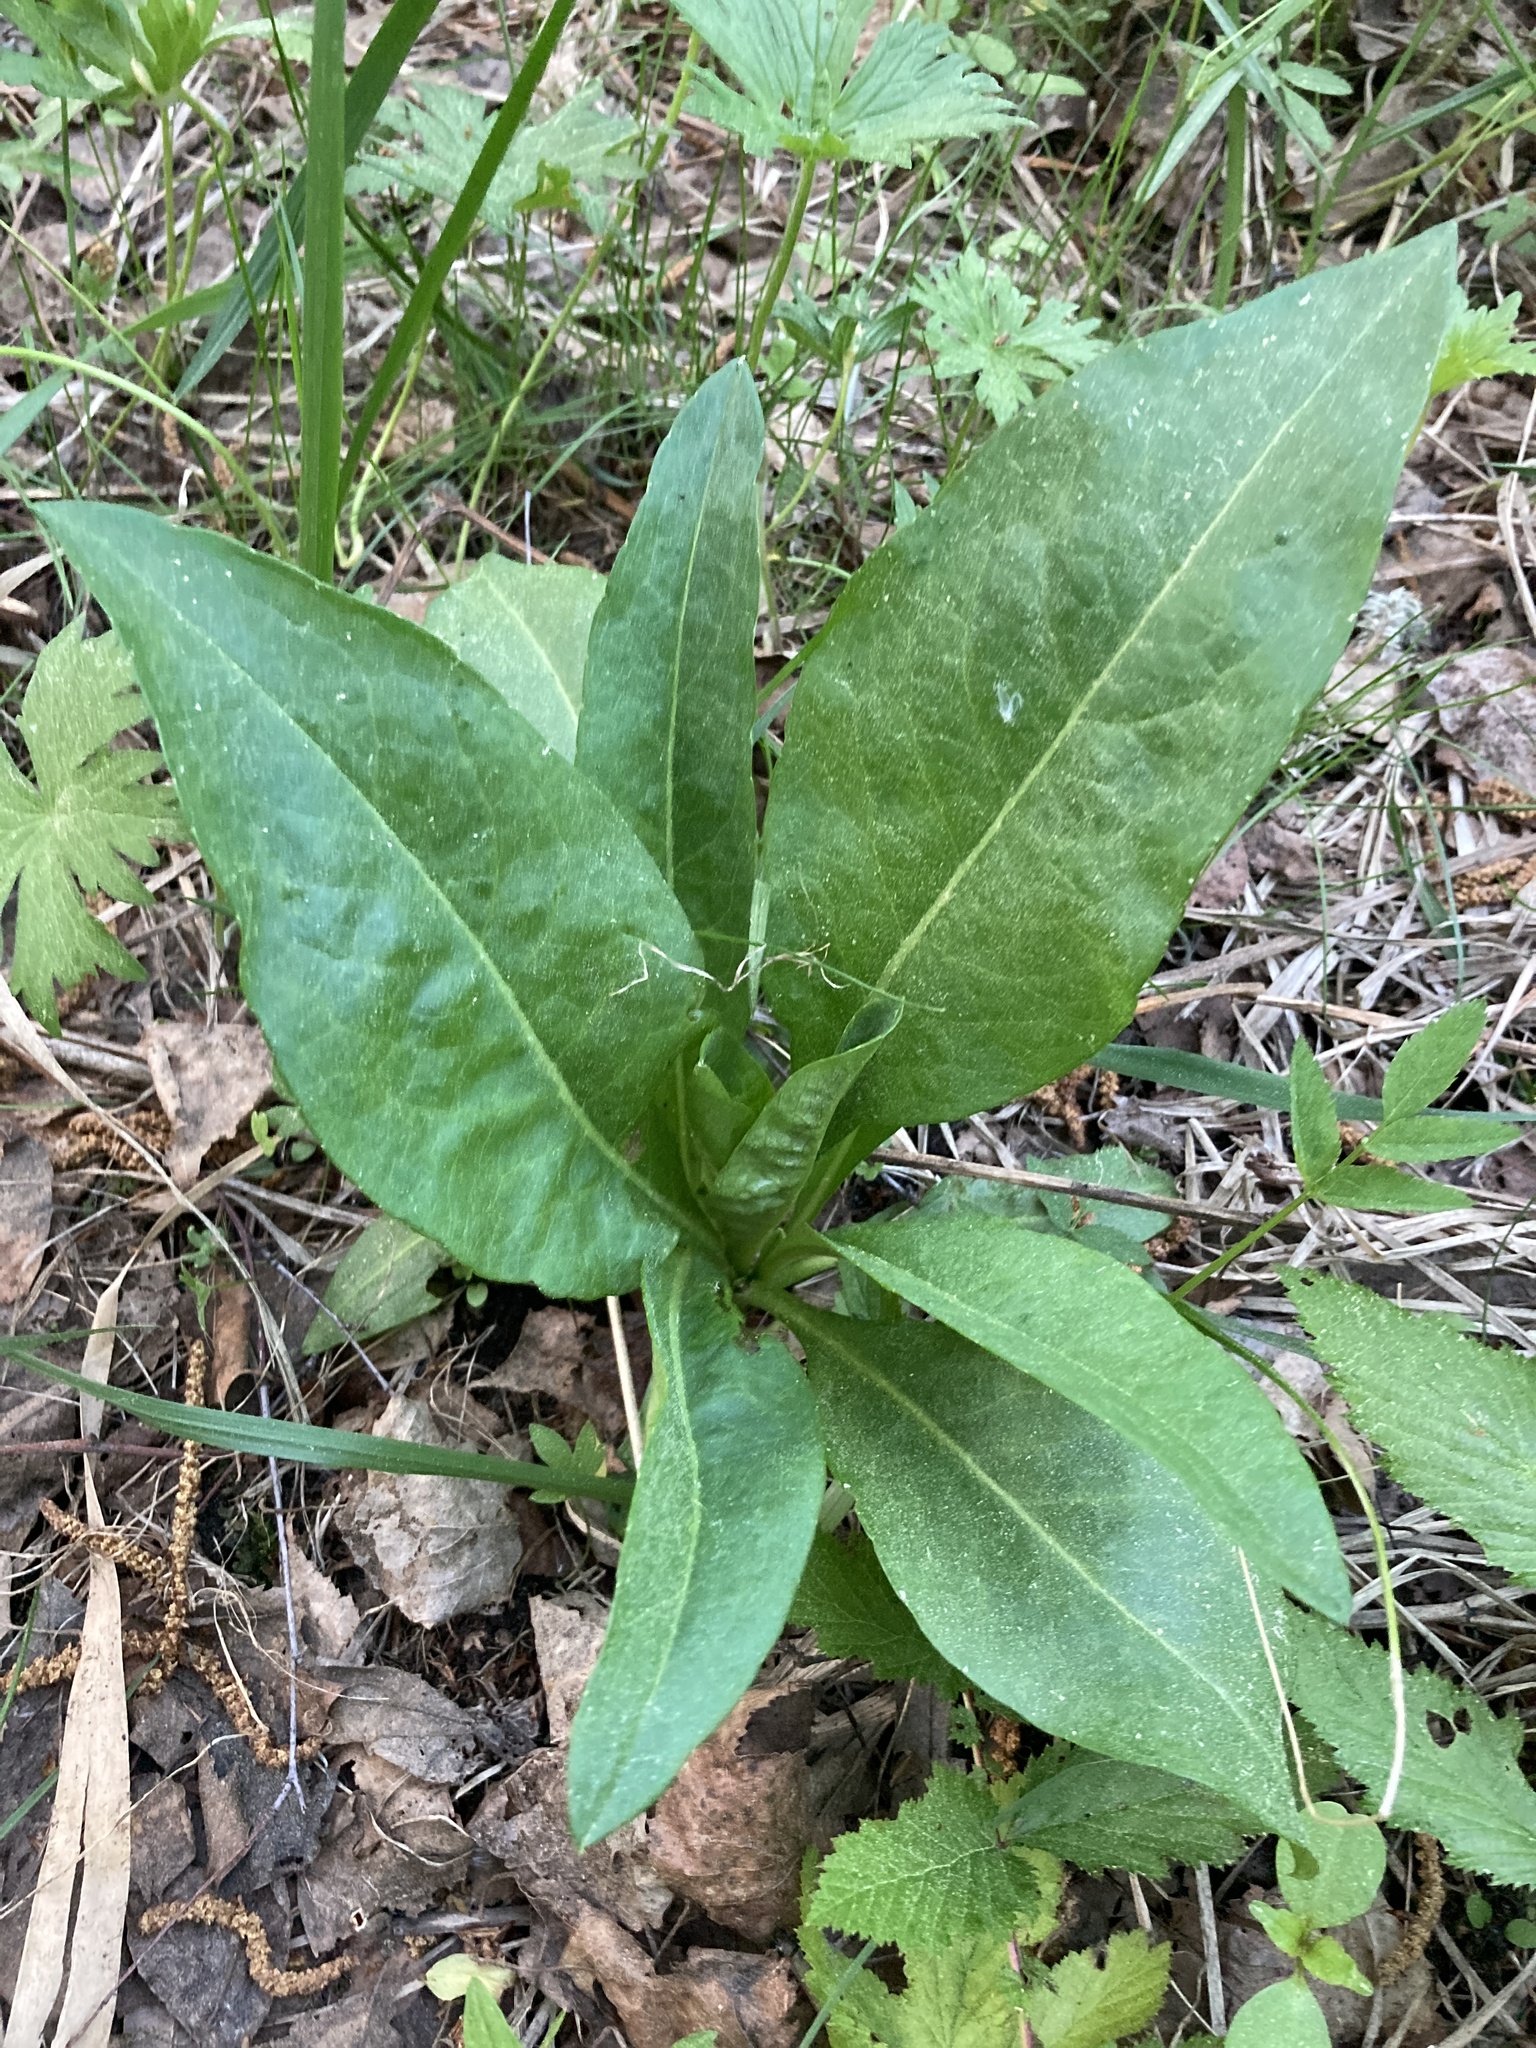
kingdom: Plantae
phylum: Tracheophyta
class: Magnoliopsida
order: Dipsacales
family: Caprifoliaceae
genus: Succisa
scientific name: Succisa pratensis
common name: Devil's-bit
